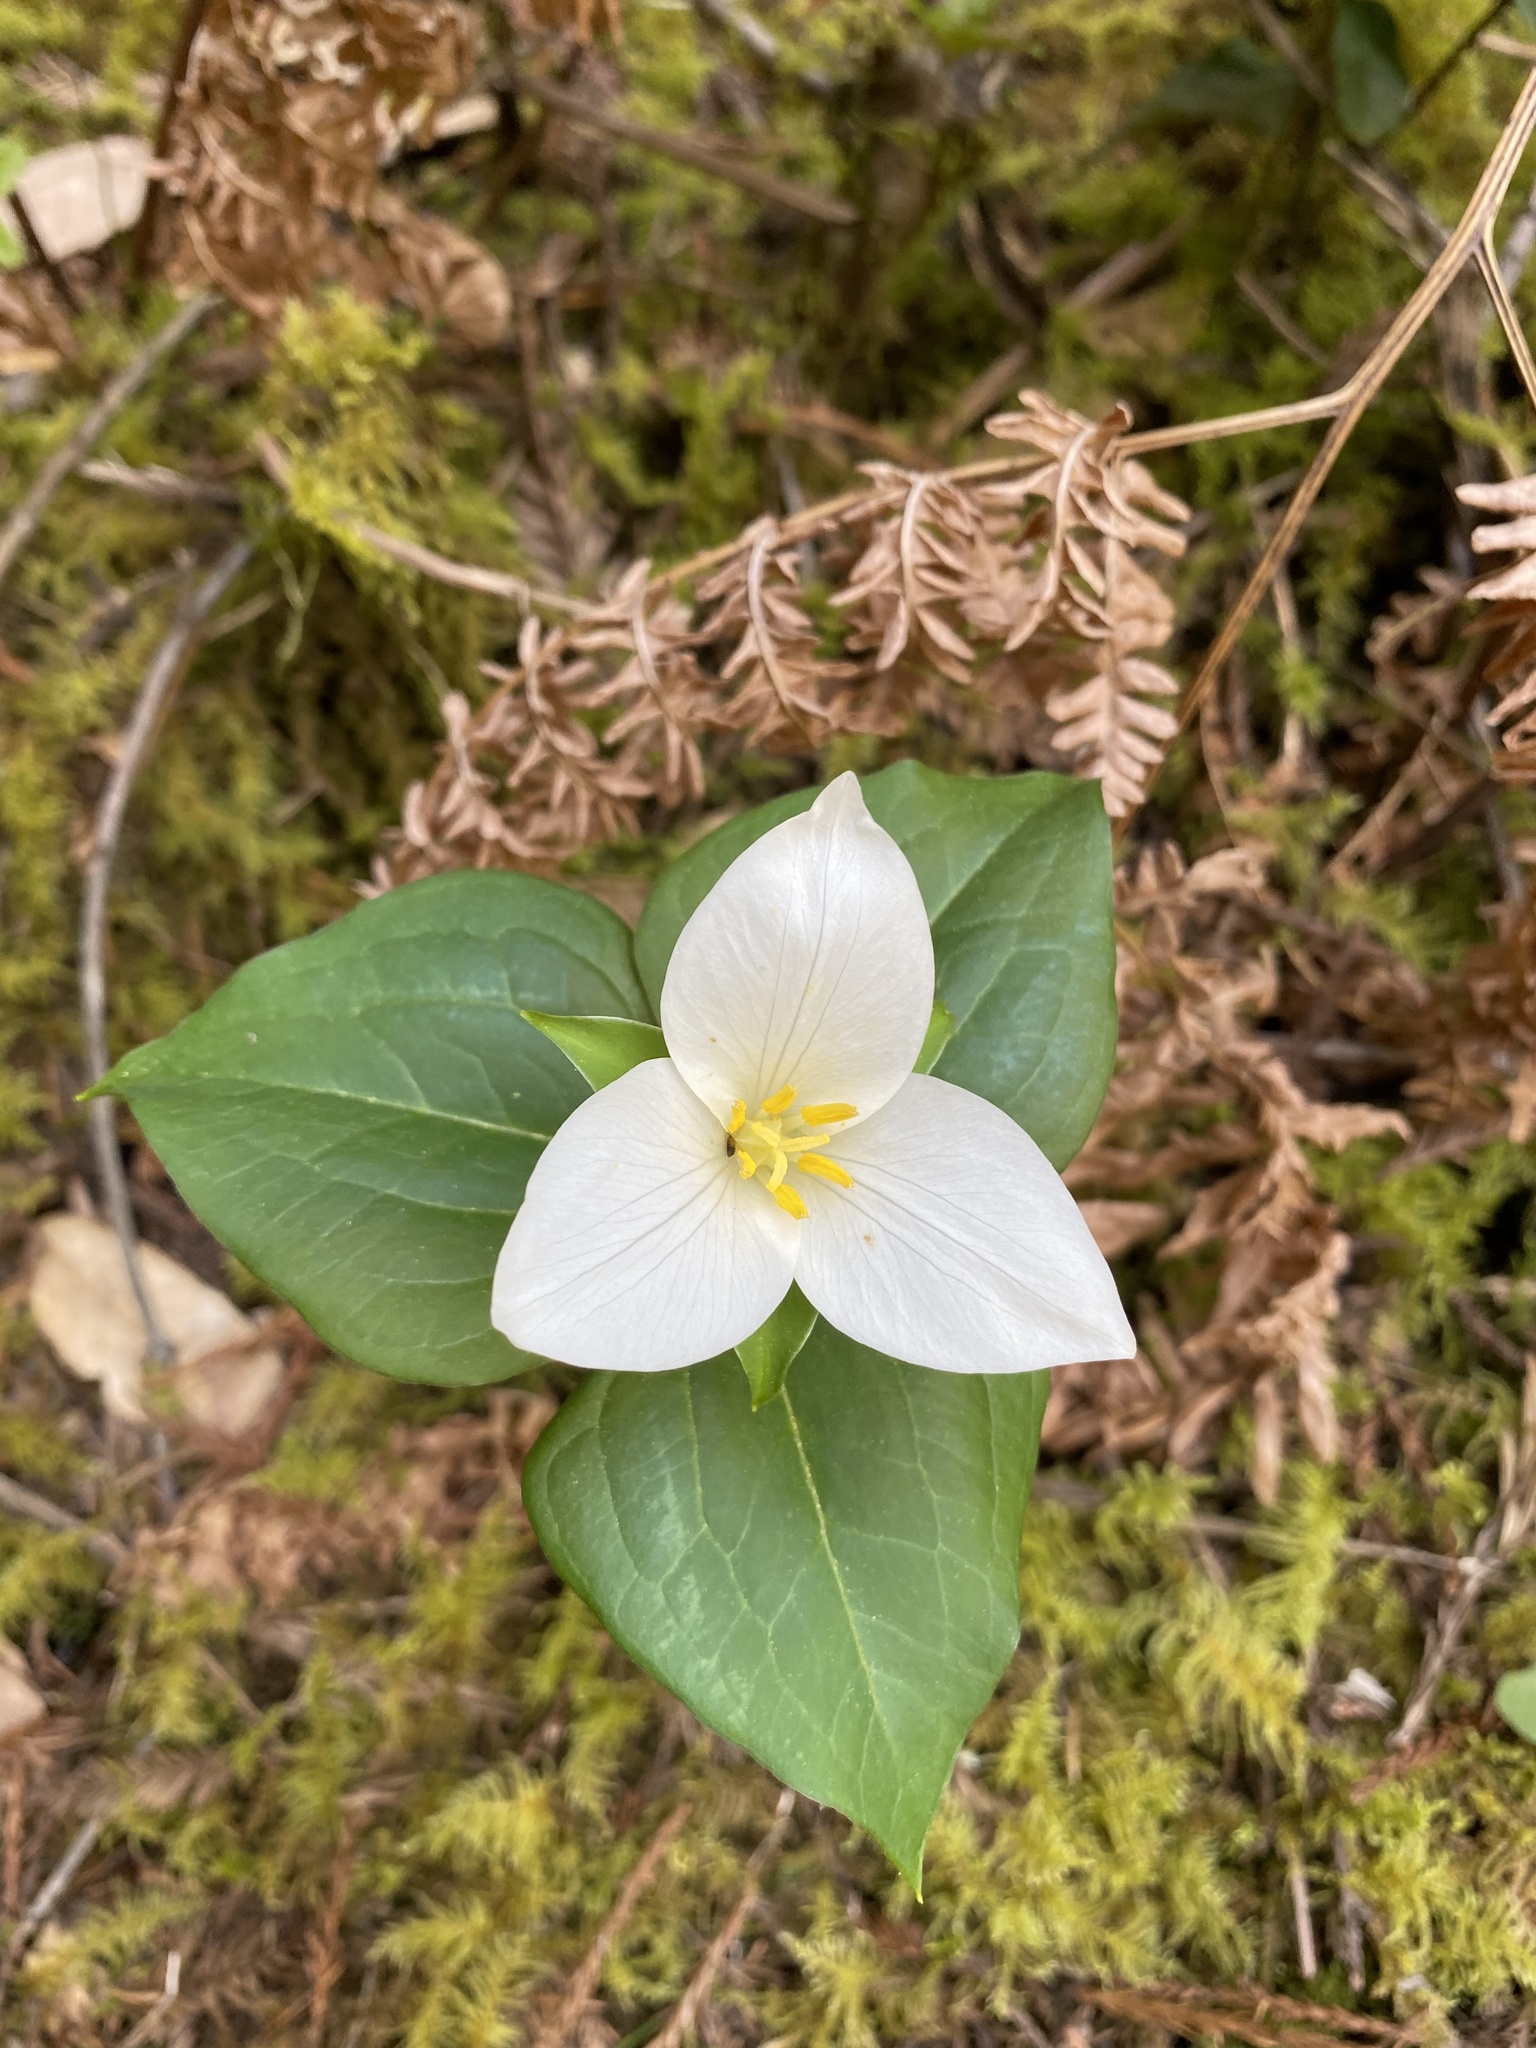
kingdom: Plantae
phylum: Tracheophyta
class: Liliopsida
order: Liliales
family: Melanthiaceae
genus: Trillium
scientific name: Trillium ovatum
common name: Pacific trillium
